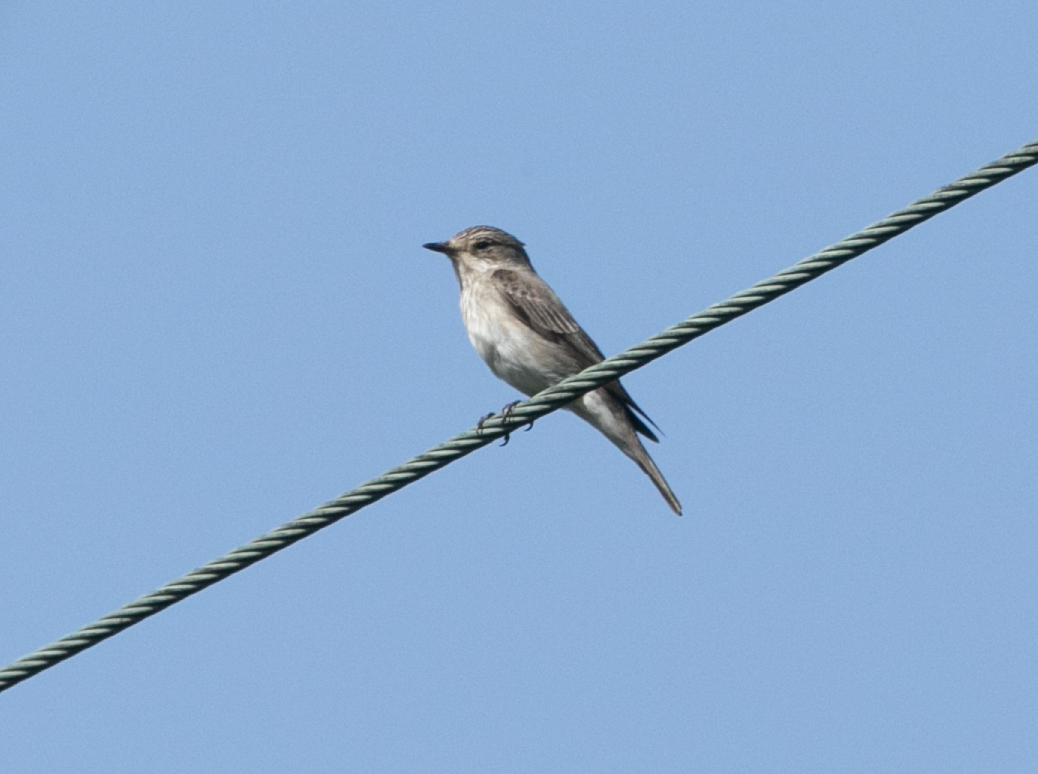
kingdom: Animalia
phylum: Chordata
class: Aves
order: Passeriformes
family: Muscicapidae
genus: Muscicapa
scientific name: Muscicapa striata
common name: Spotted flycatcher
